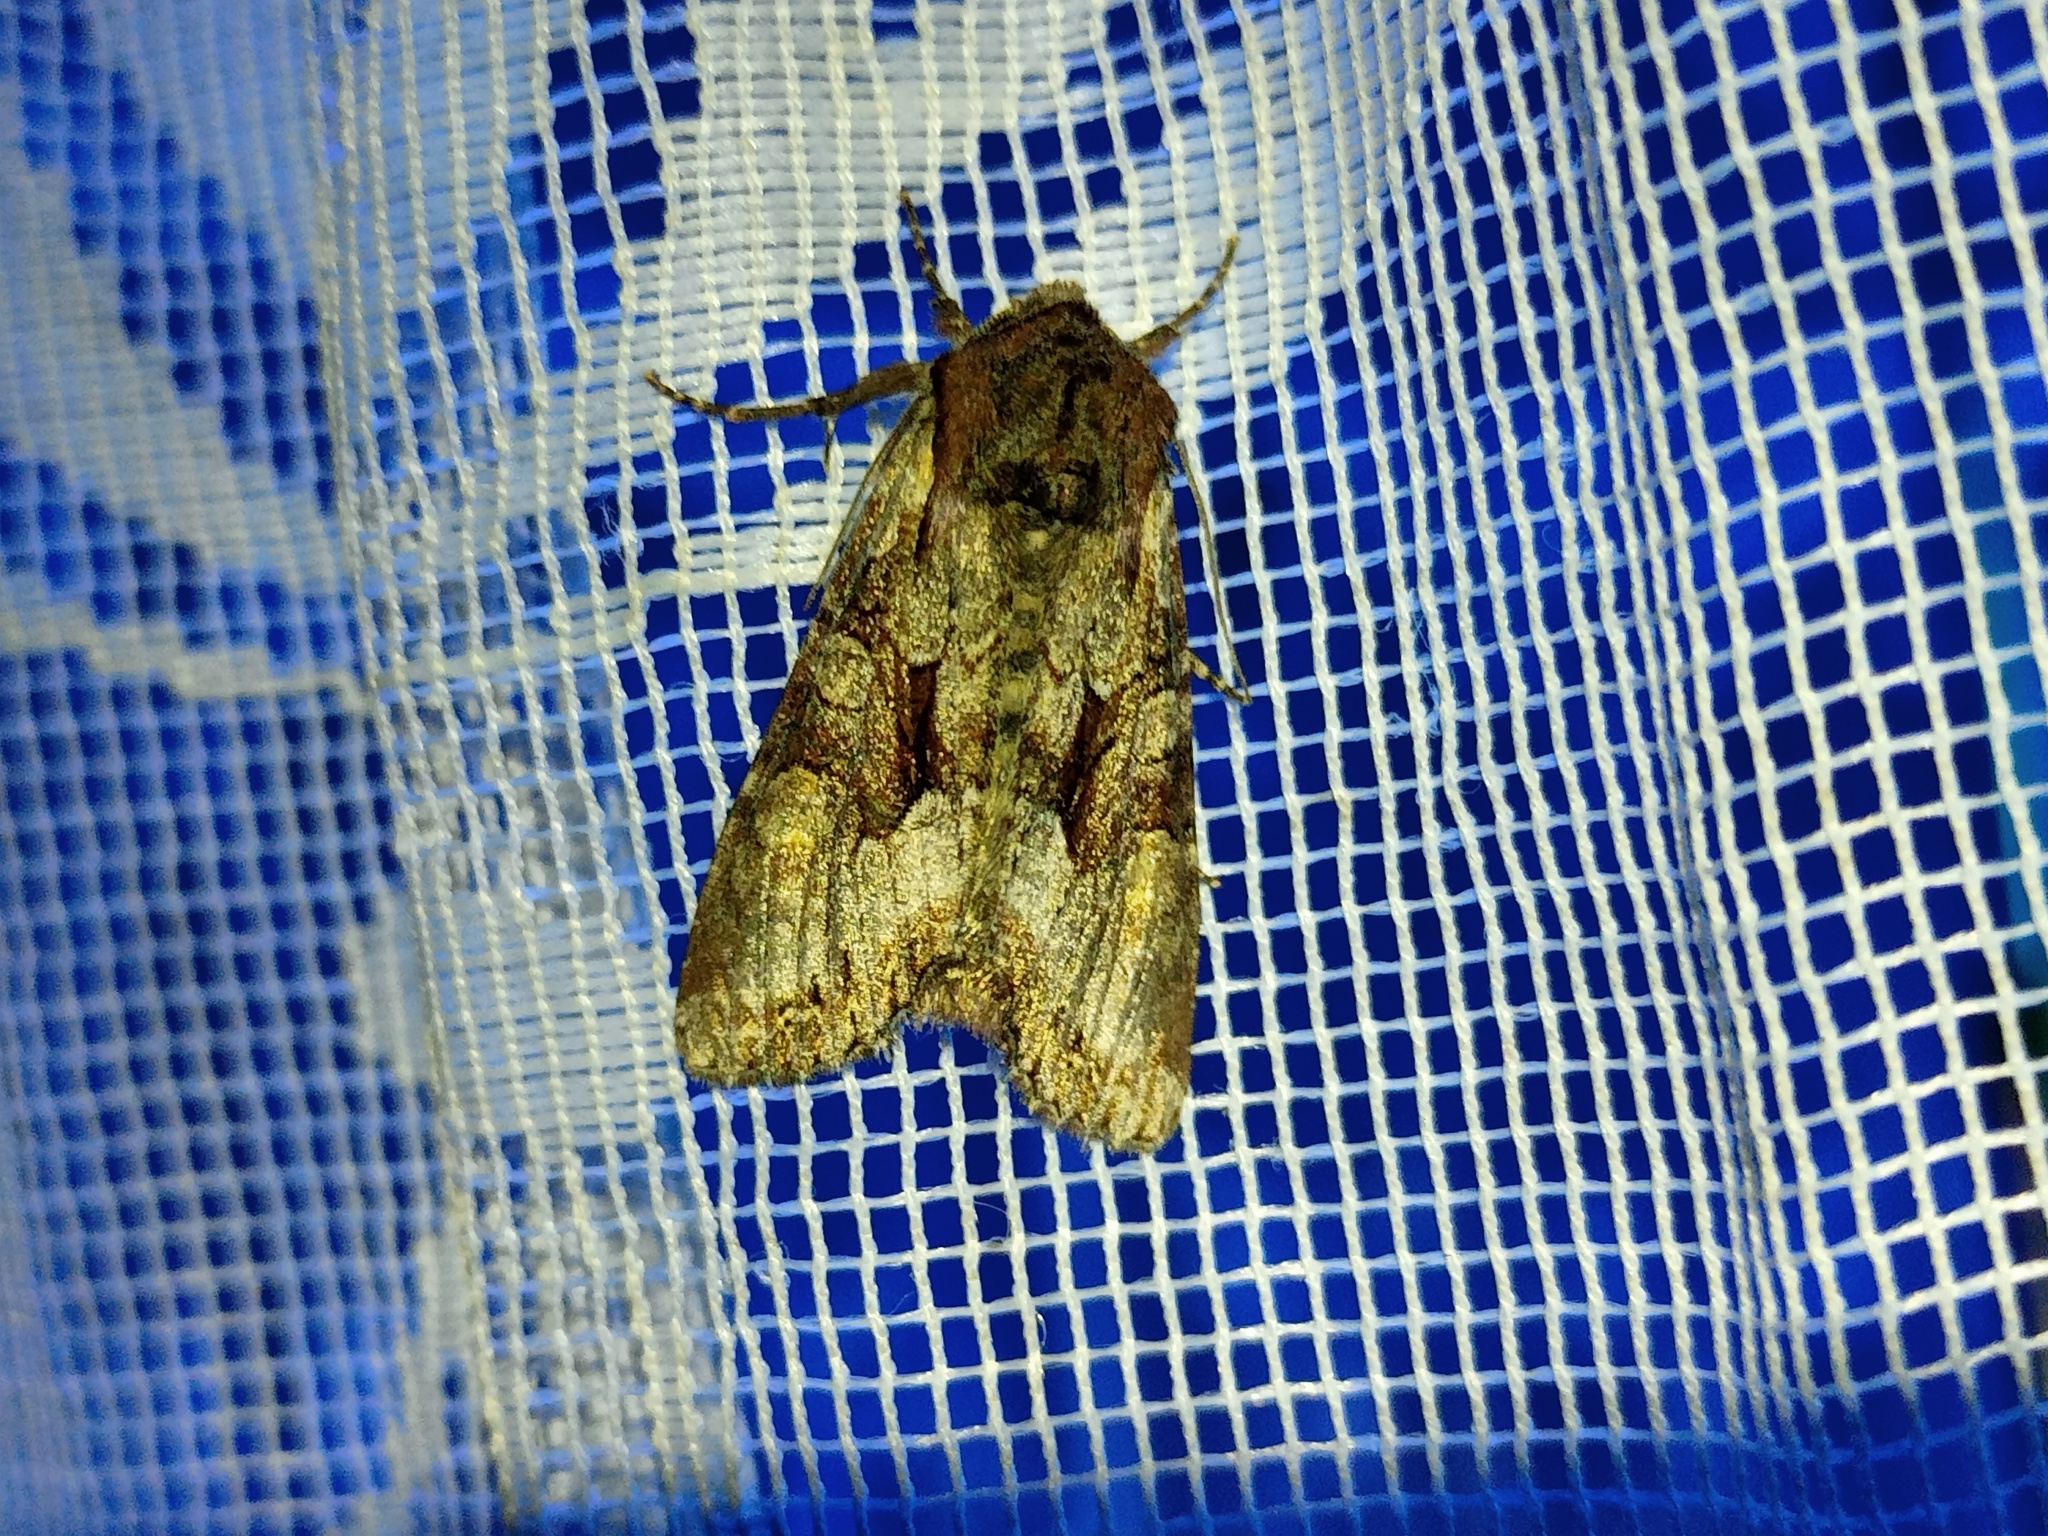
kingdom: Animalia
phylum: Arthropoda
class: Insecta
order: Lepidoptera
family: Noctuidae
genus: Lacanobia
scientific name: Lacanobia w-latinum
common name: Light brocade
